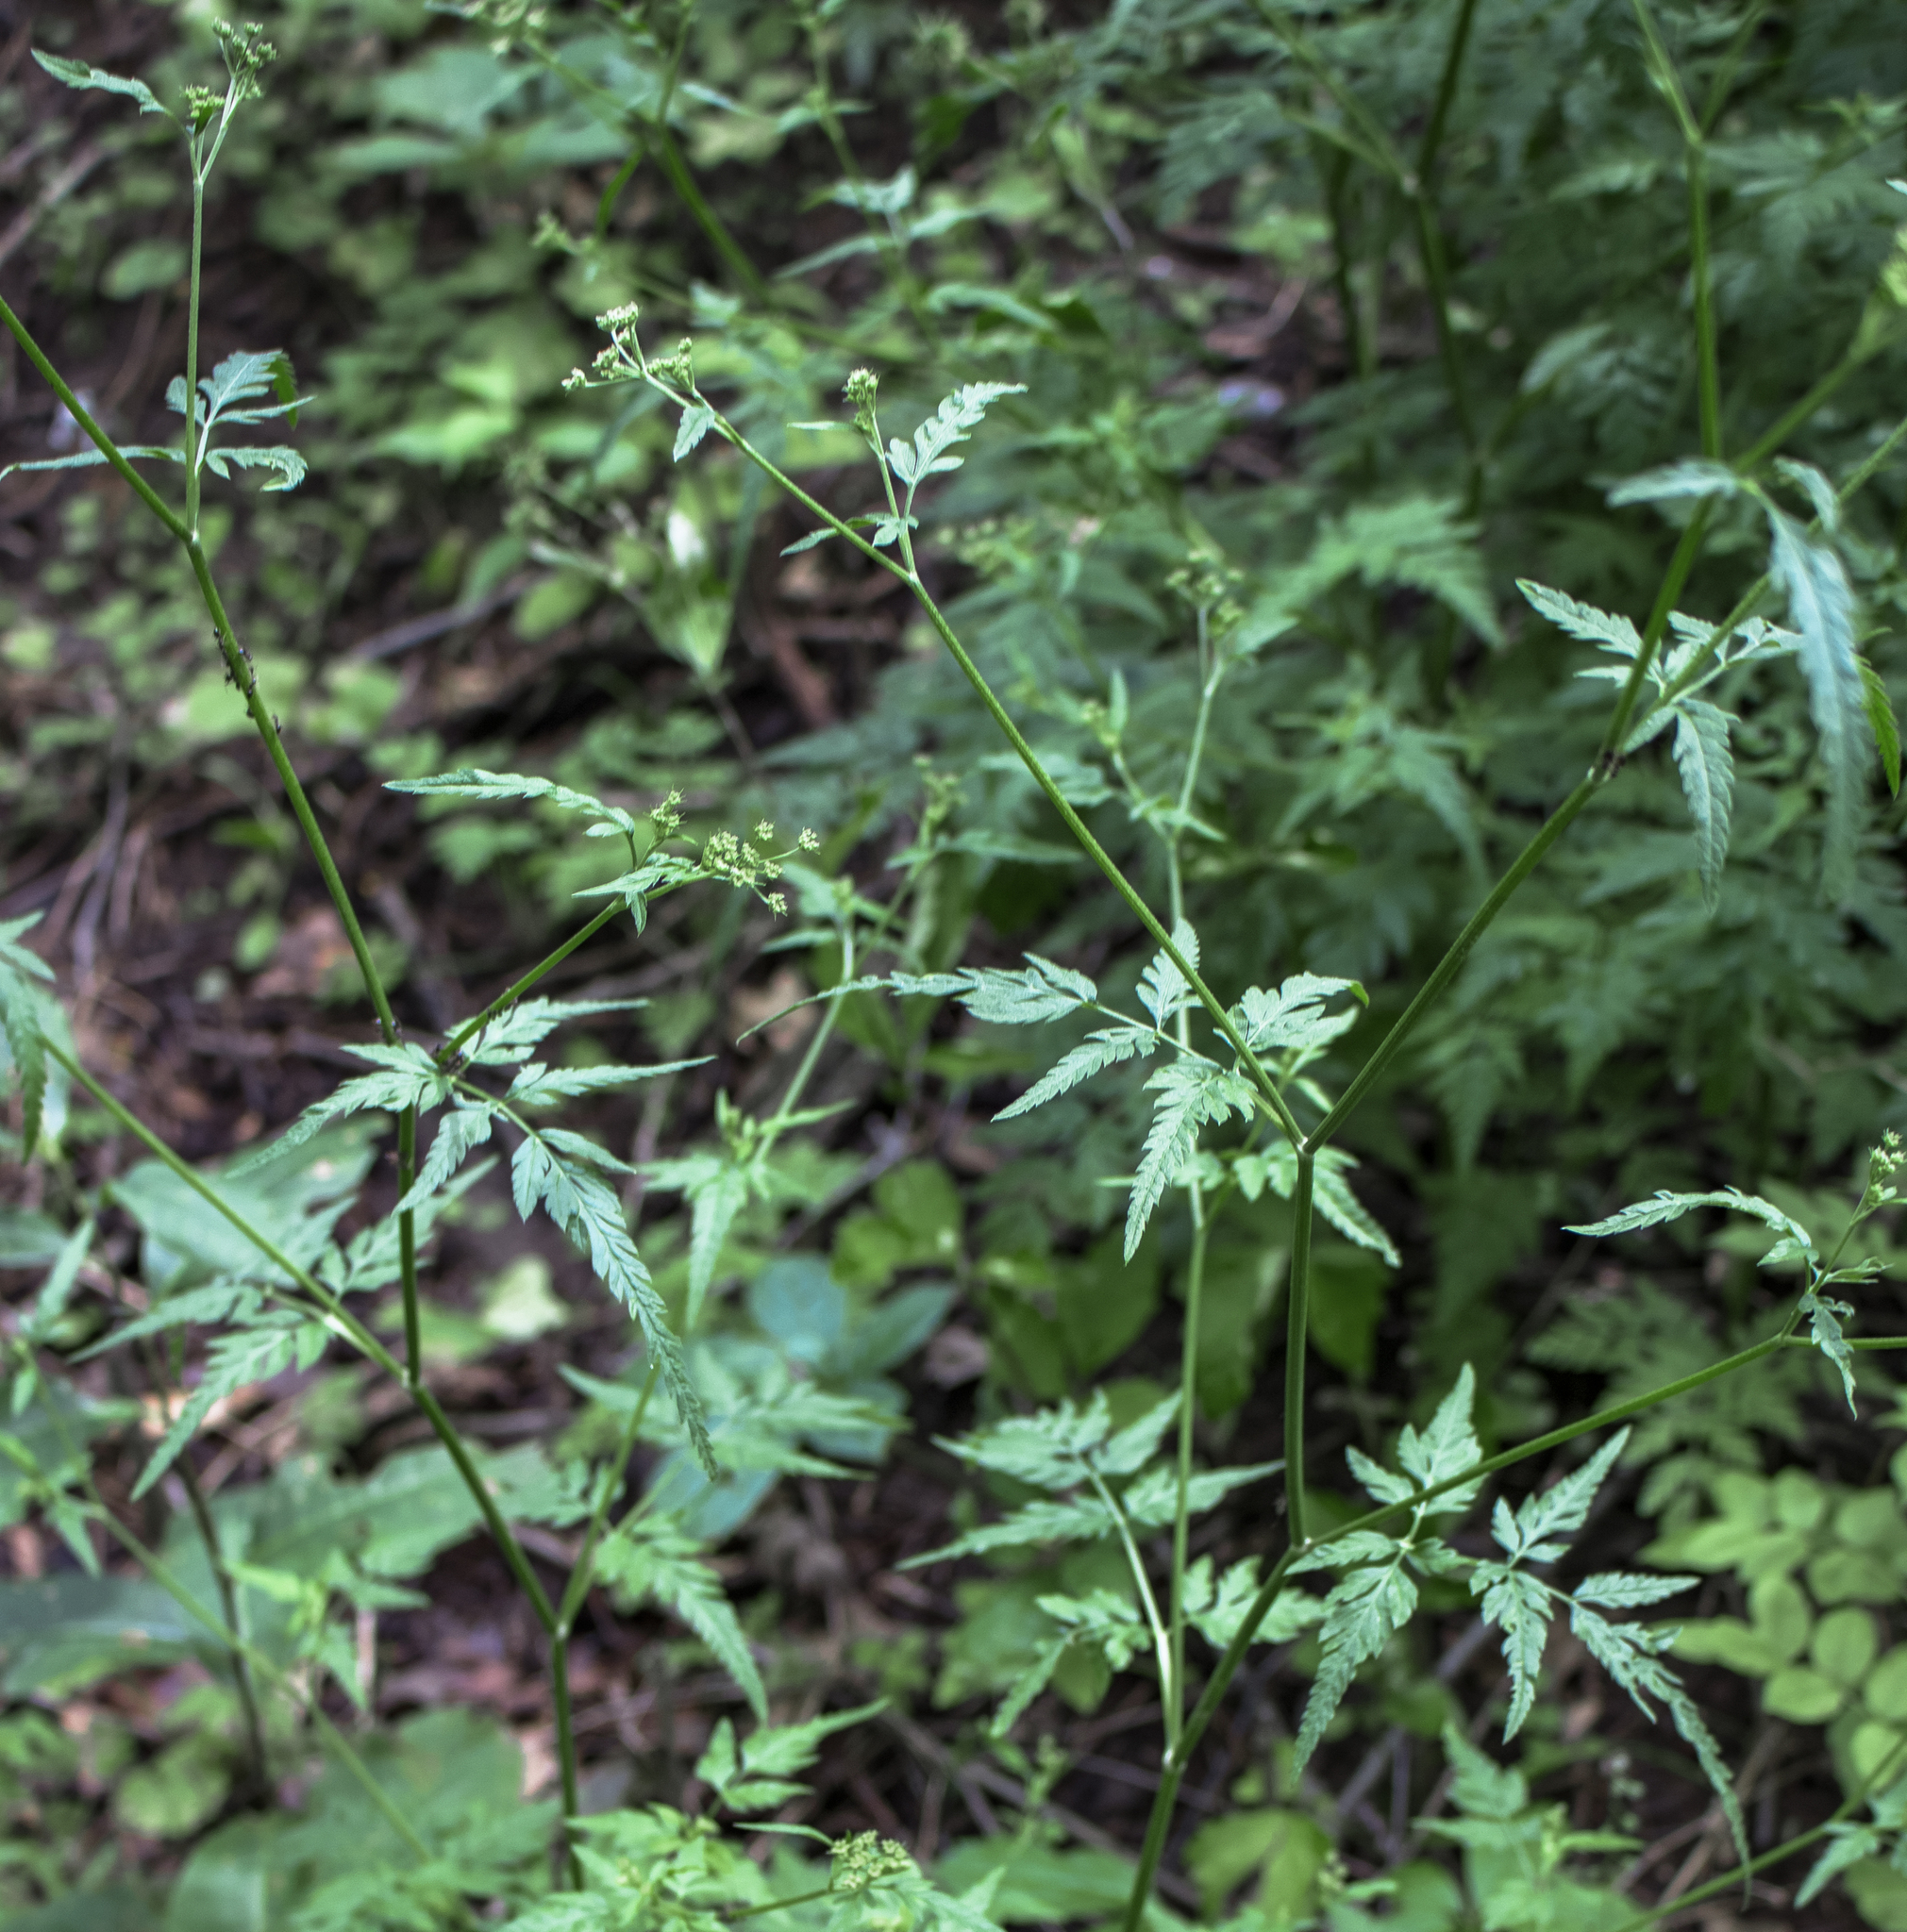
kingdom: Plantae
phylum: Tracheophyta
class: Magnoliopsida
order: Apiales
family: Apiaceae
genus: Torilis
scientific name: Torilis japonica
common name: Upright hedge-parsley
